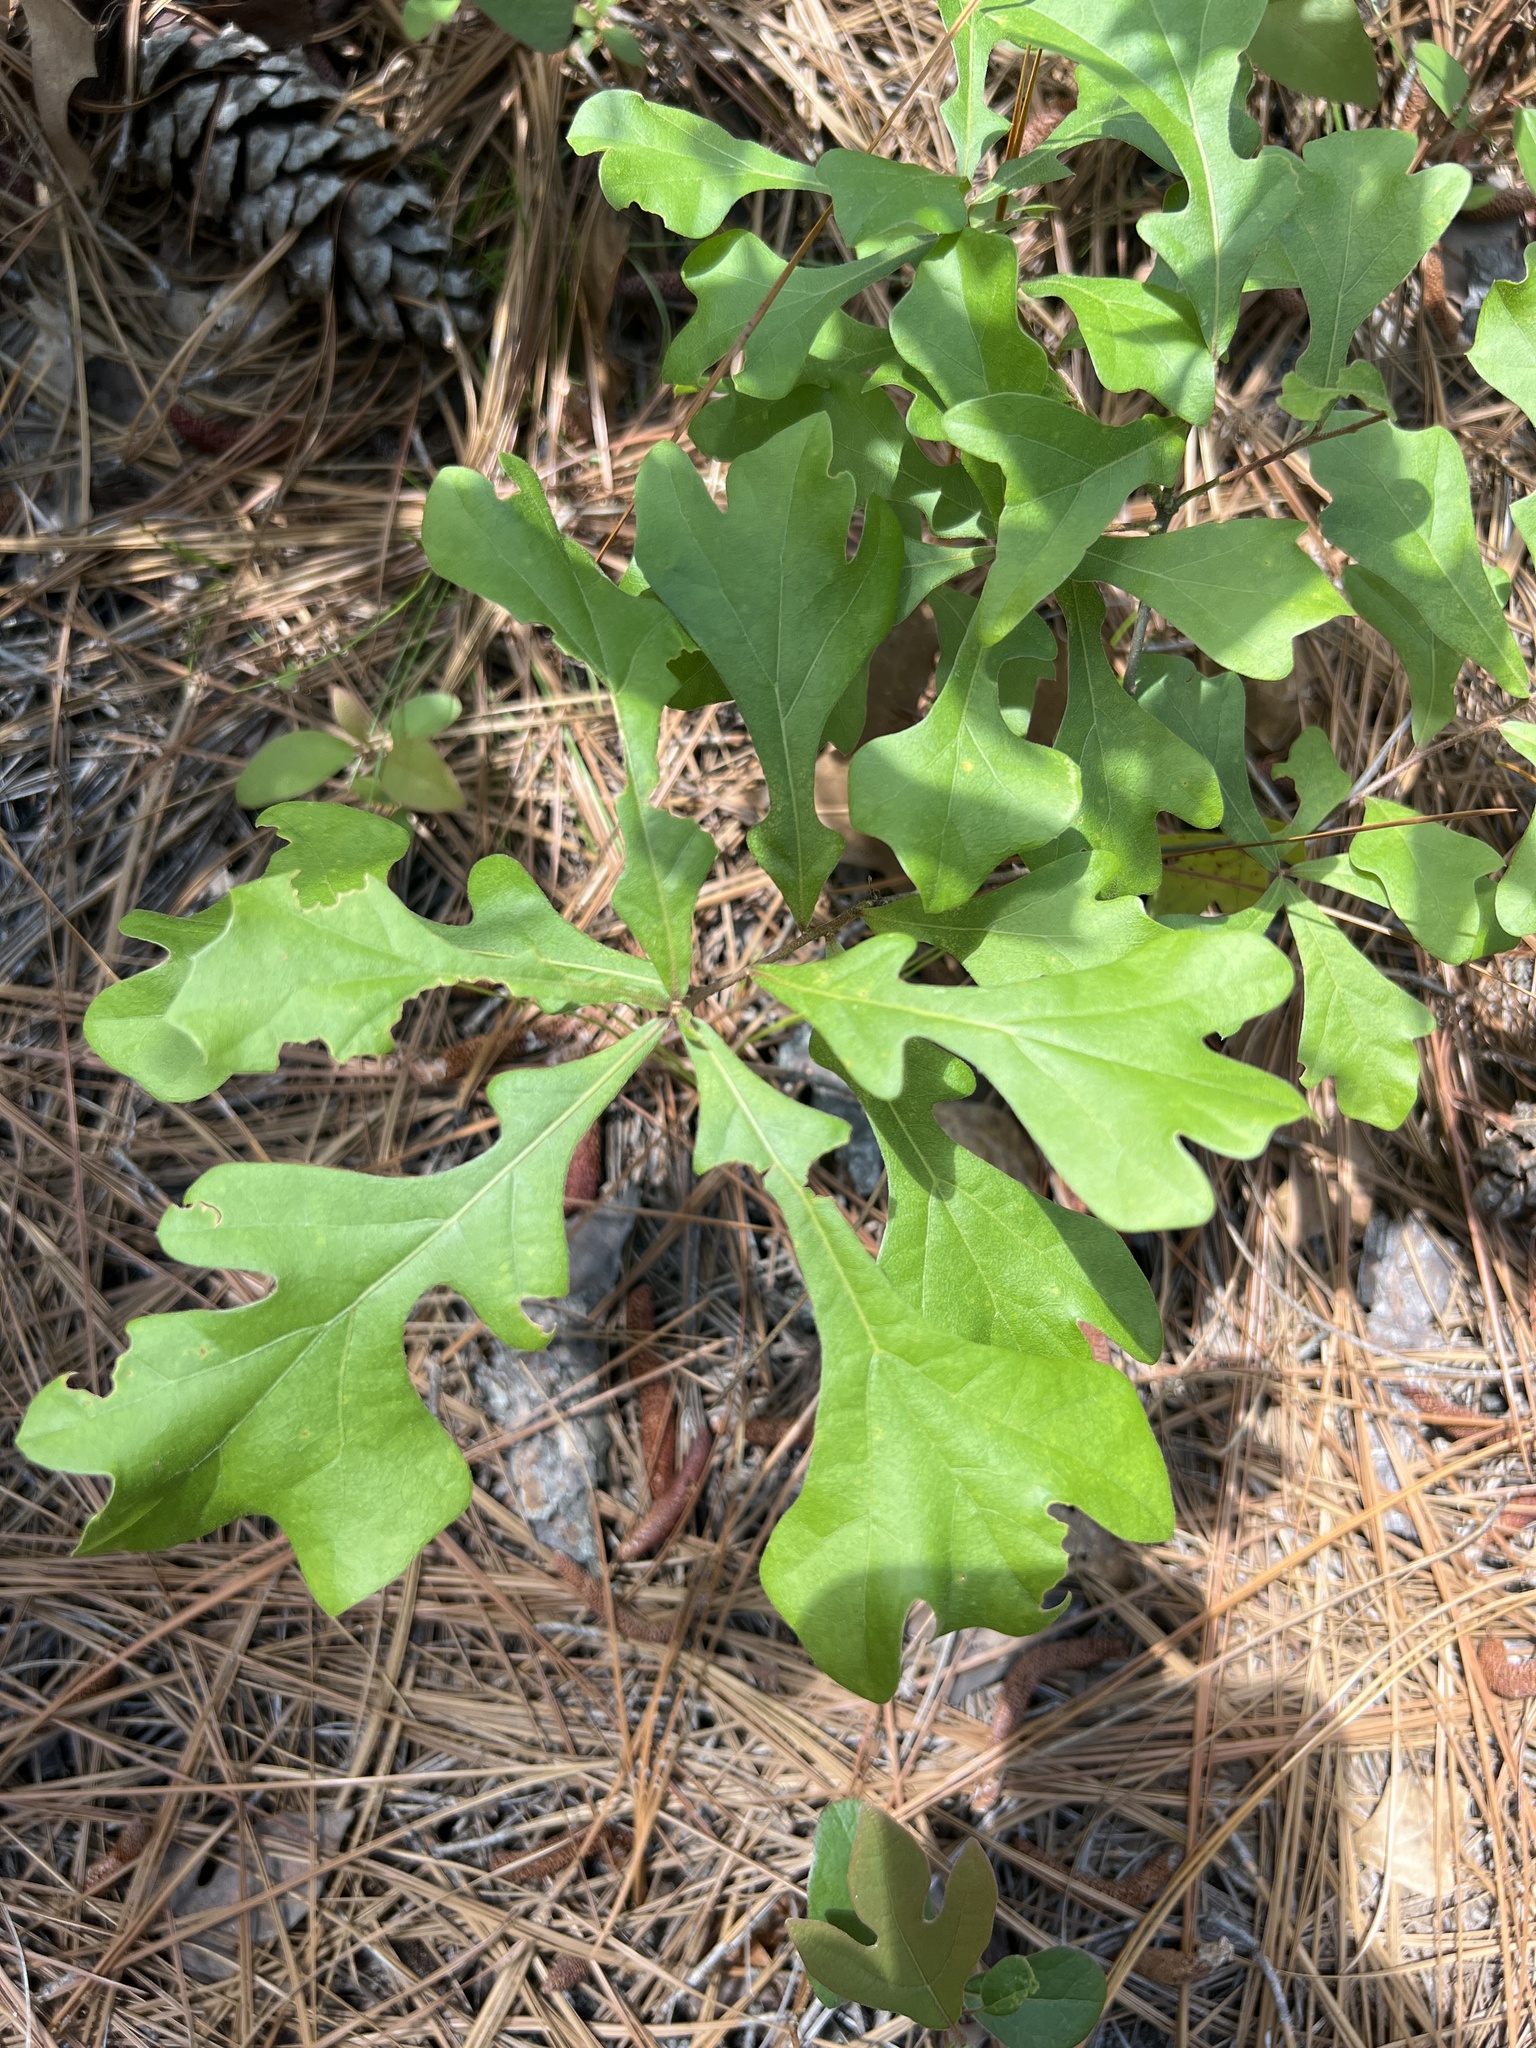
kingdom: Plantae
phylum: Tracheophyta
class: Magnoliopsida
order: Fagales
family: Fagaceae
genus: Quercus
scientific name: Quercus margaretiae
